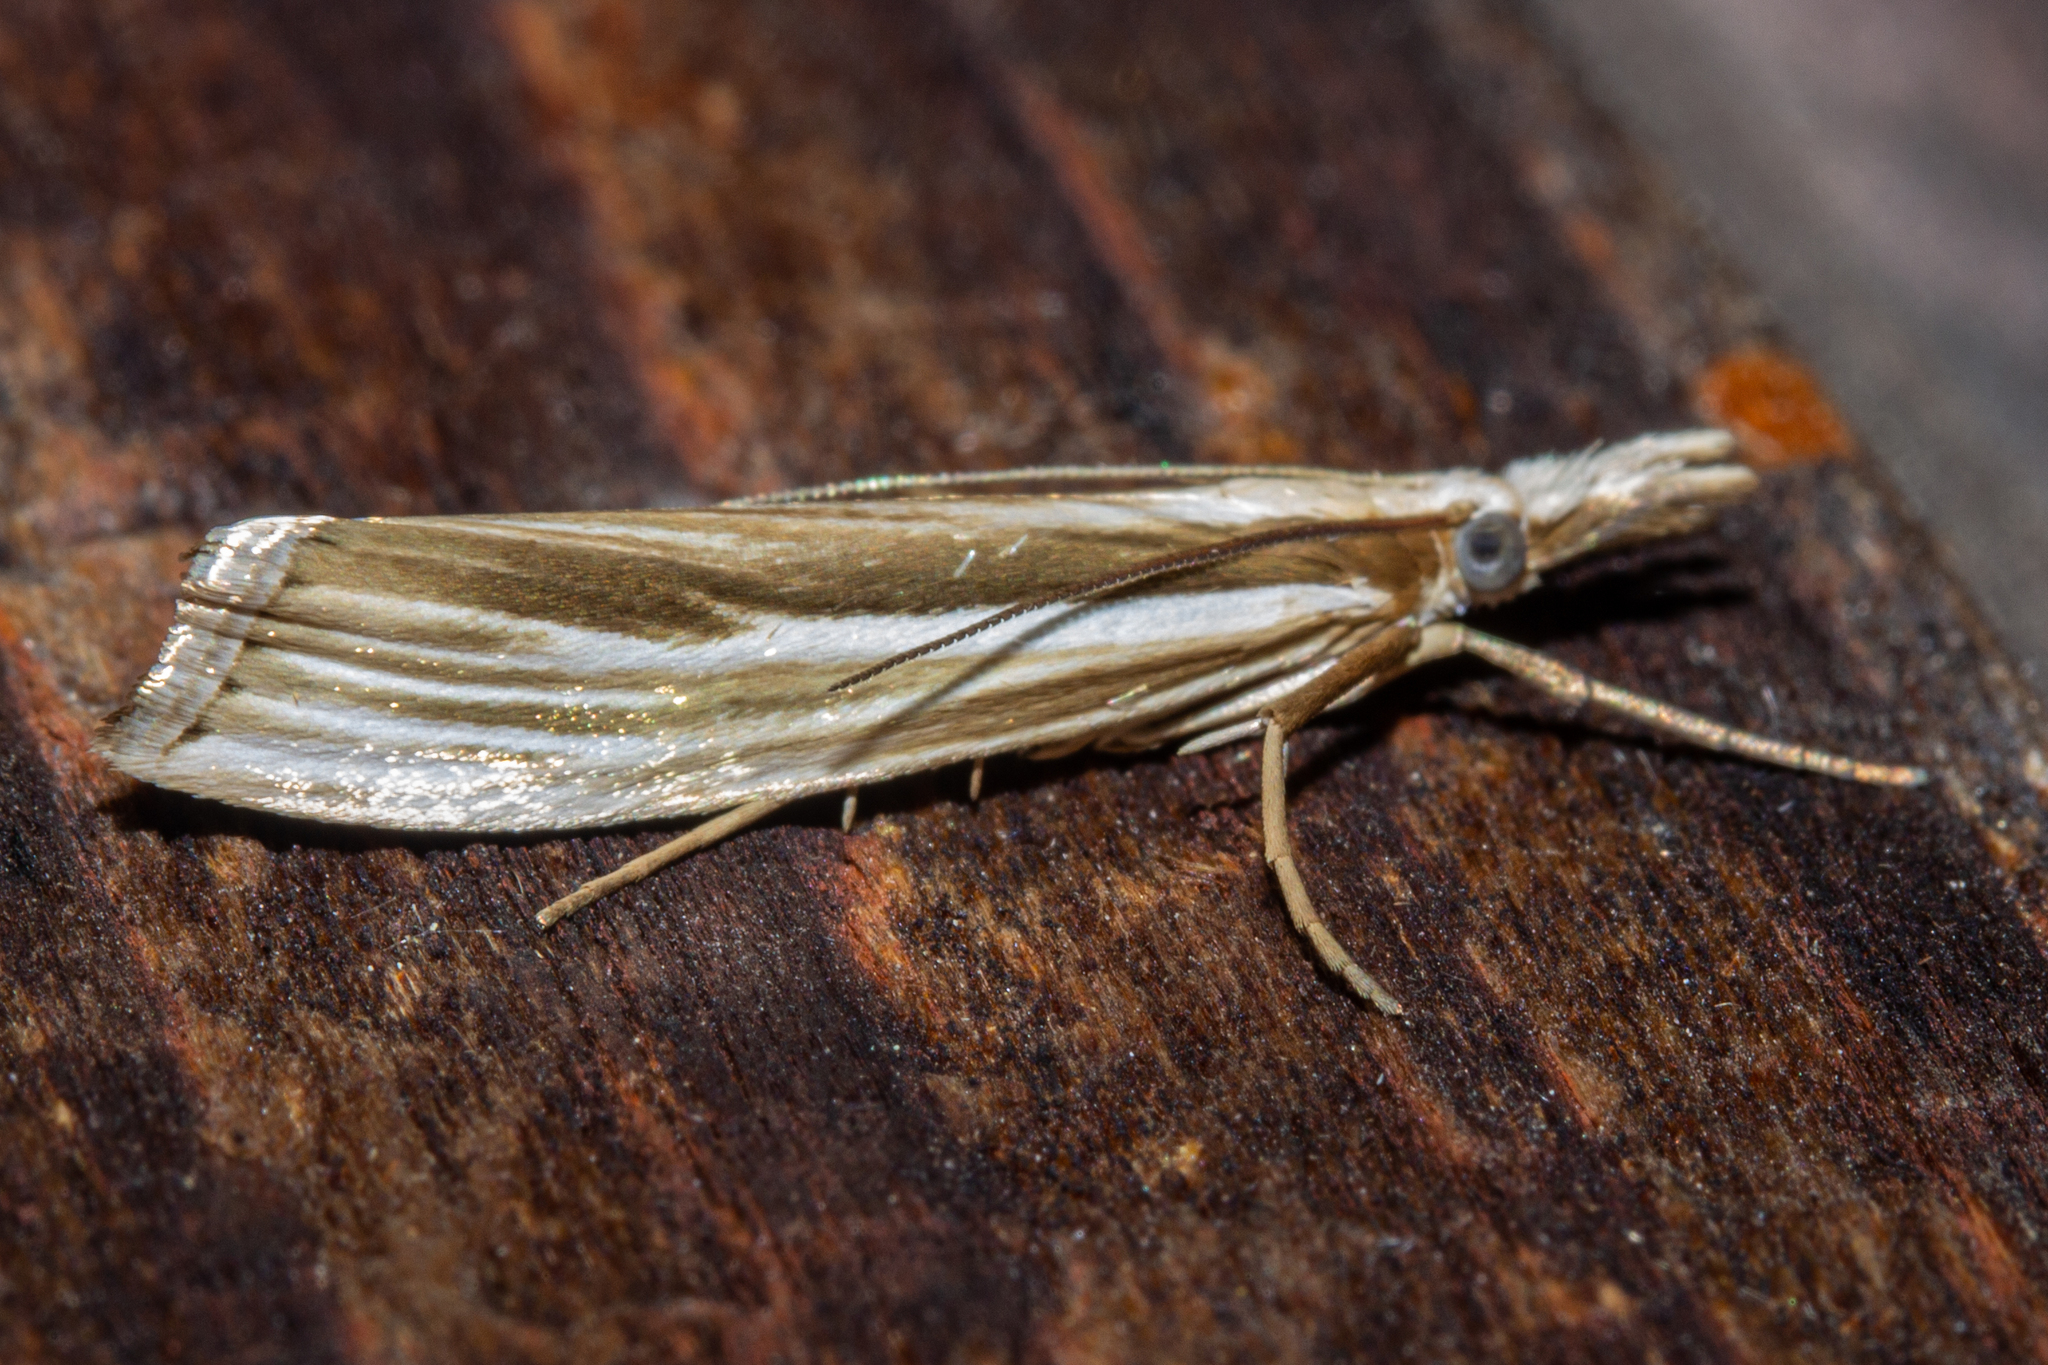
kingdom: Animalia
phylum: Arthropoda
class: Insecta
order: Lepidoptera
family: Crambidae
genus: Orocrambus
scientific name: Orocrambus vittellus
